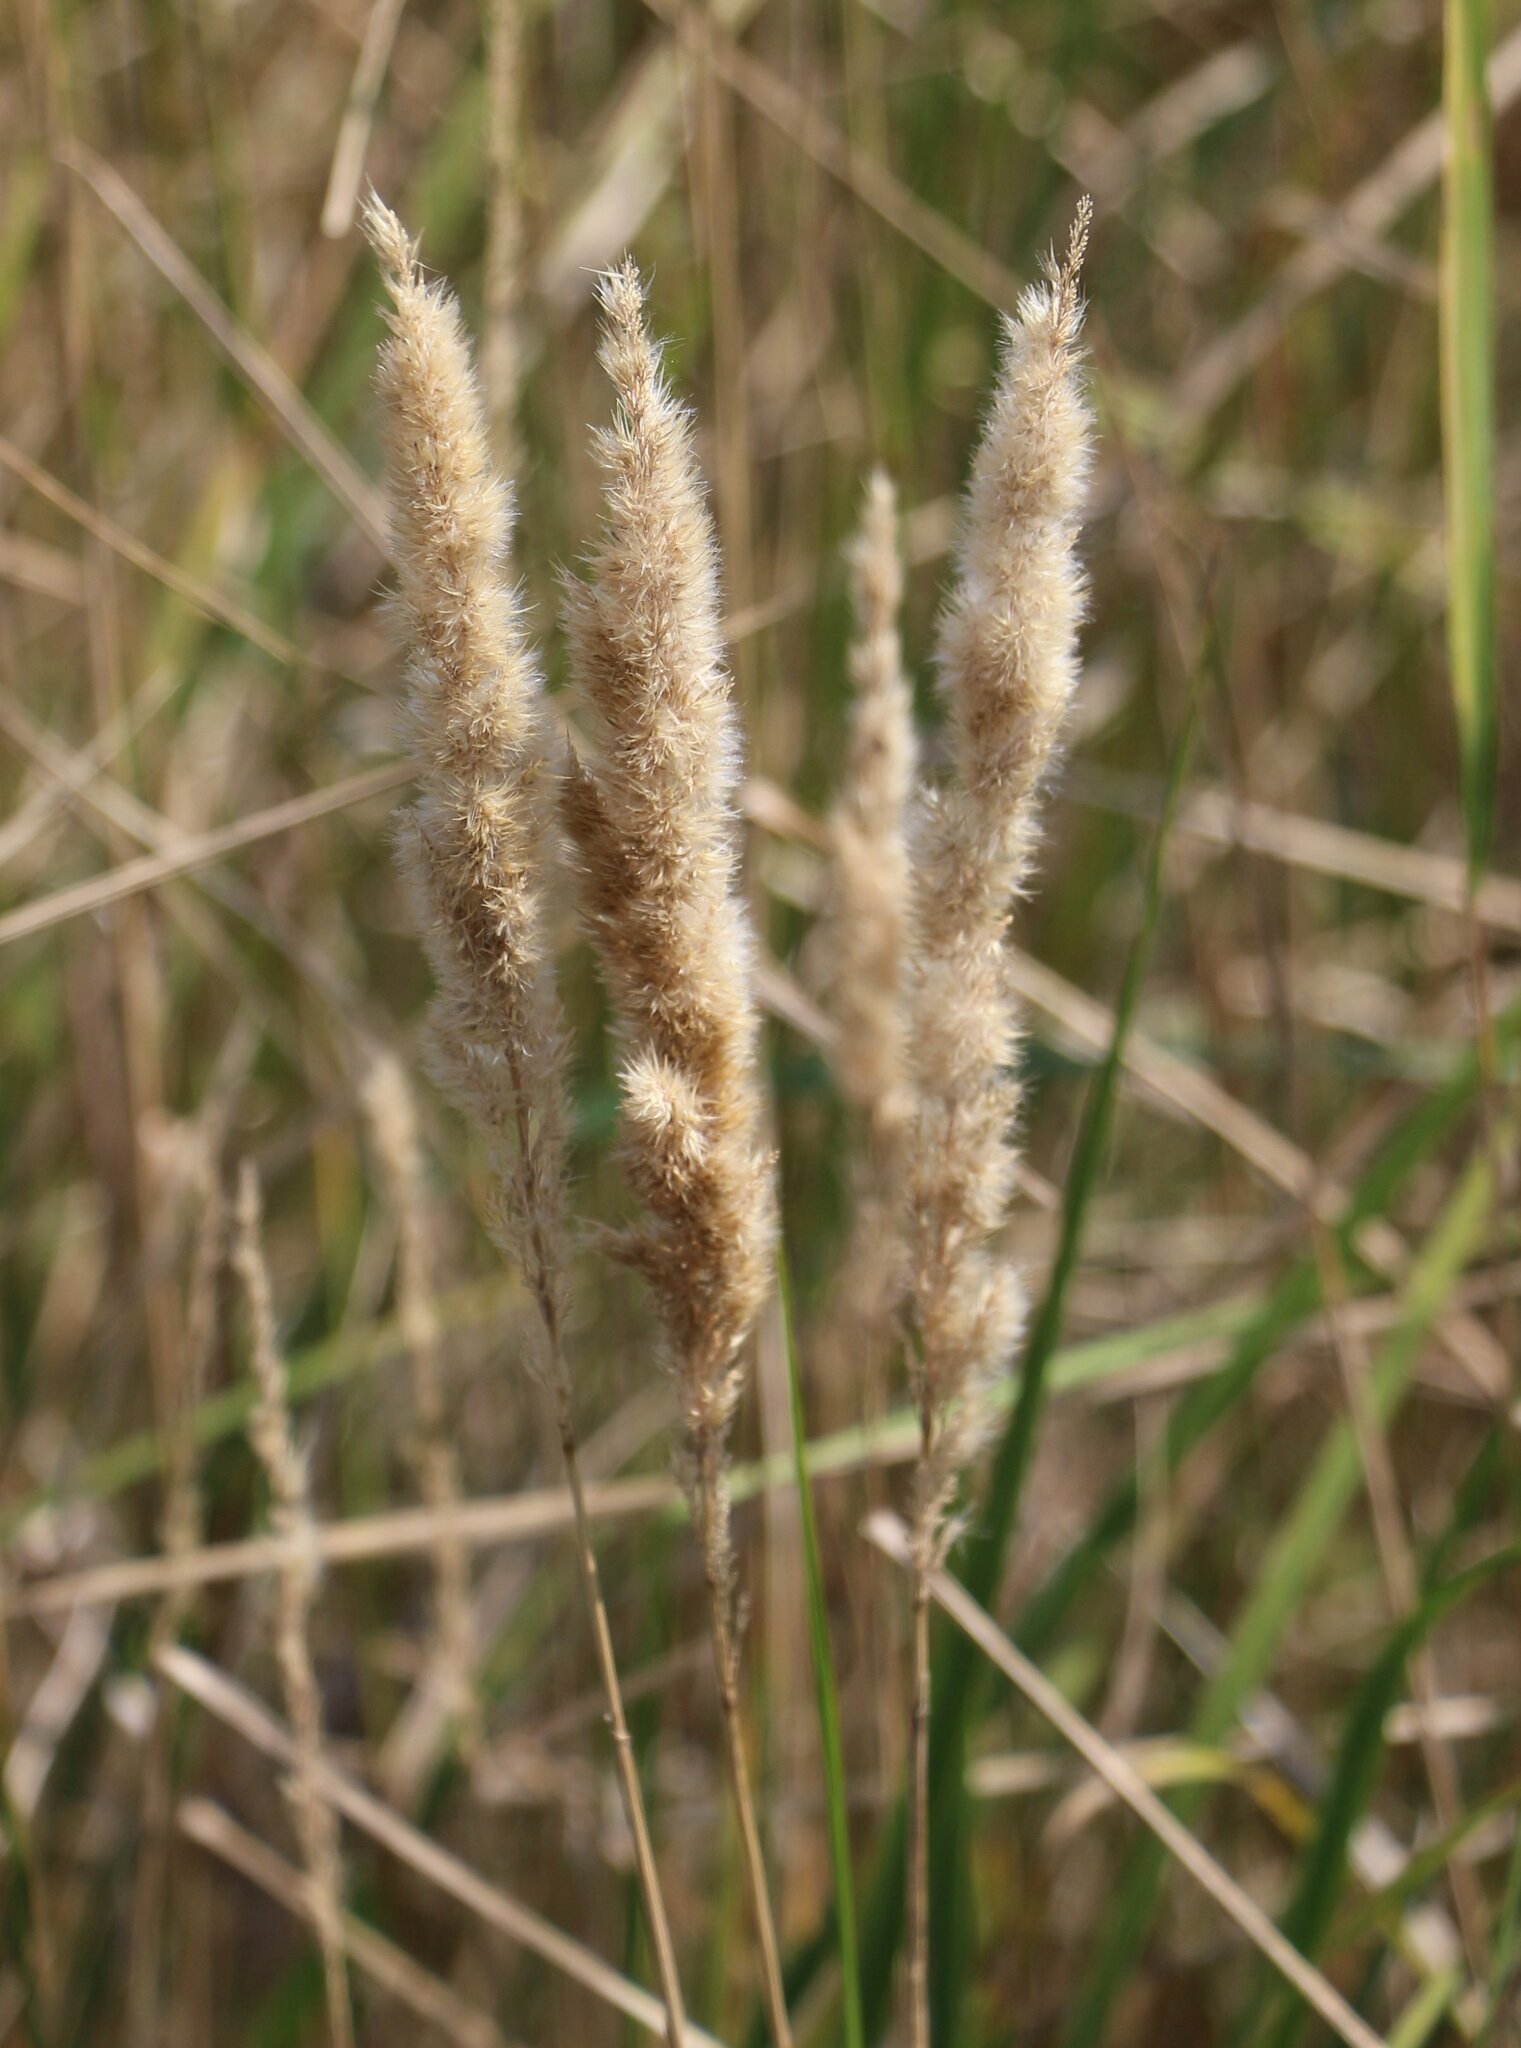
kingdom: Plantae
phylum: Tracheophyta
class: Liliopsida
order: Poales
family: Poaceae
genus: Calamagrostis
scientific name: Calamagrostis epigejos
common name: Wood small-reed
